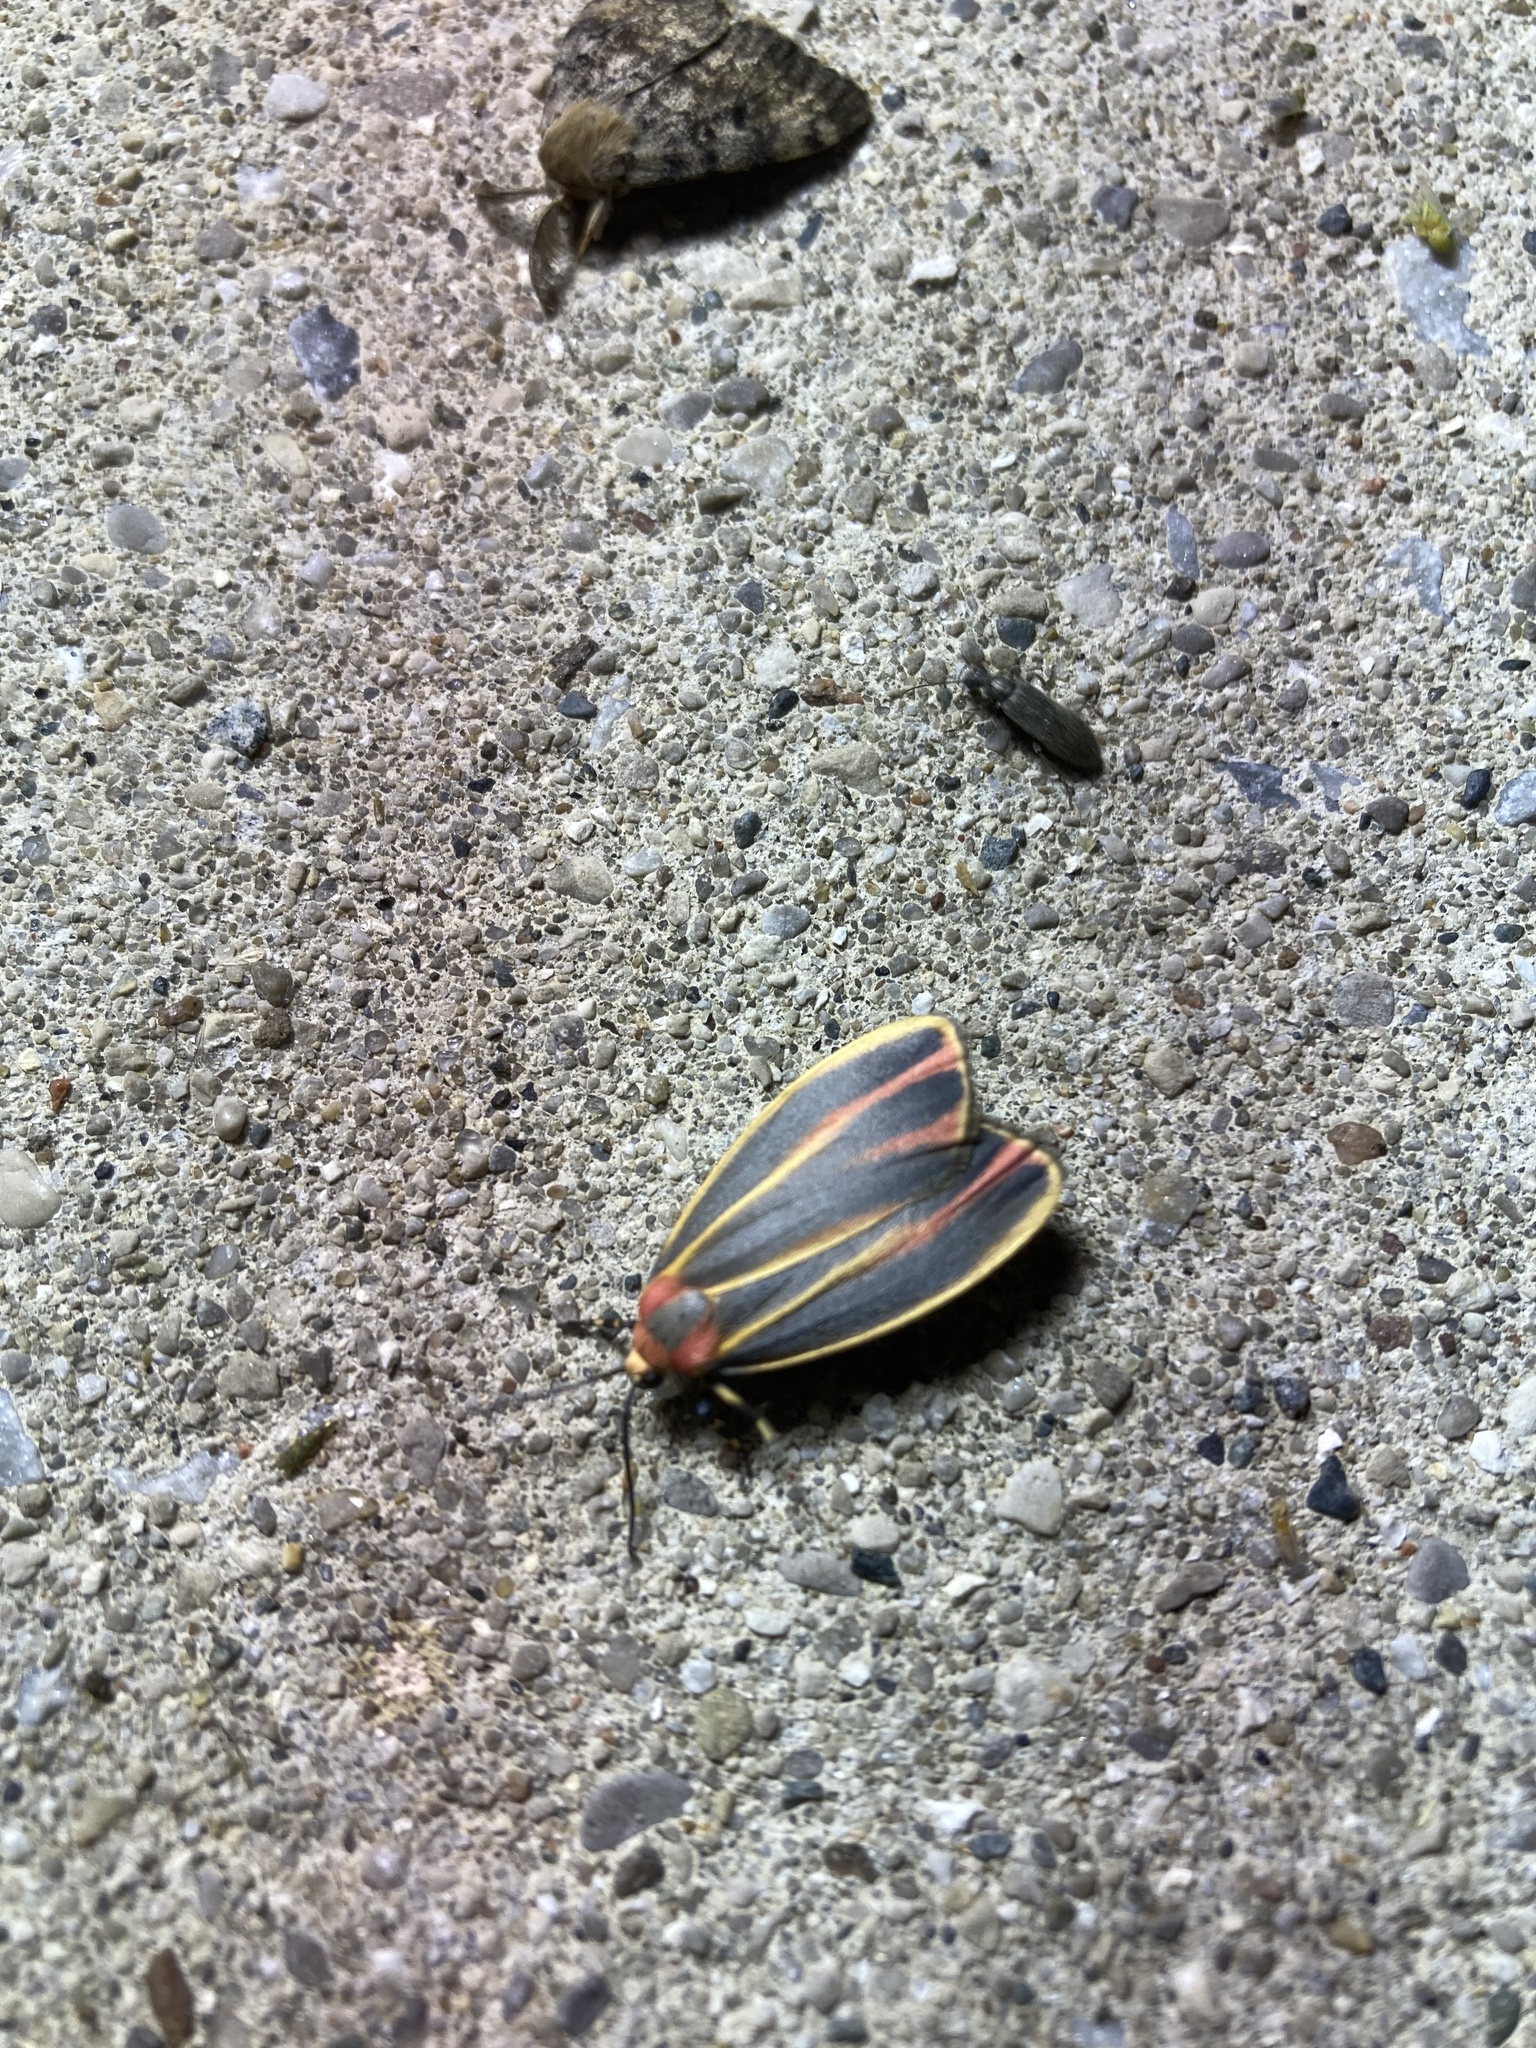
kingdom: Animalia
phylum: Arthropoda
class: Insecta
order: Lepidoptera
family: Erebidae
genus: Hypoprepia
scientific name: Hypoprepia fucosa
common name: Painted lichen moth
